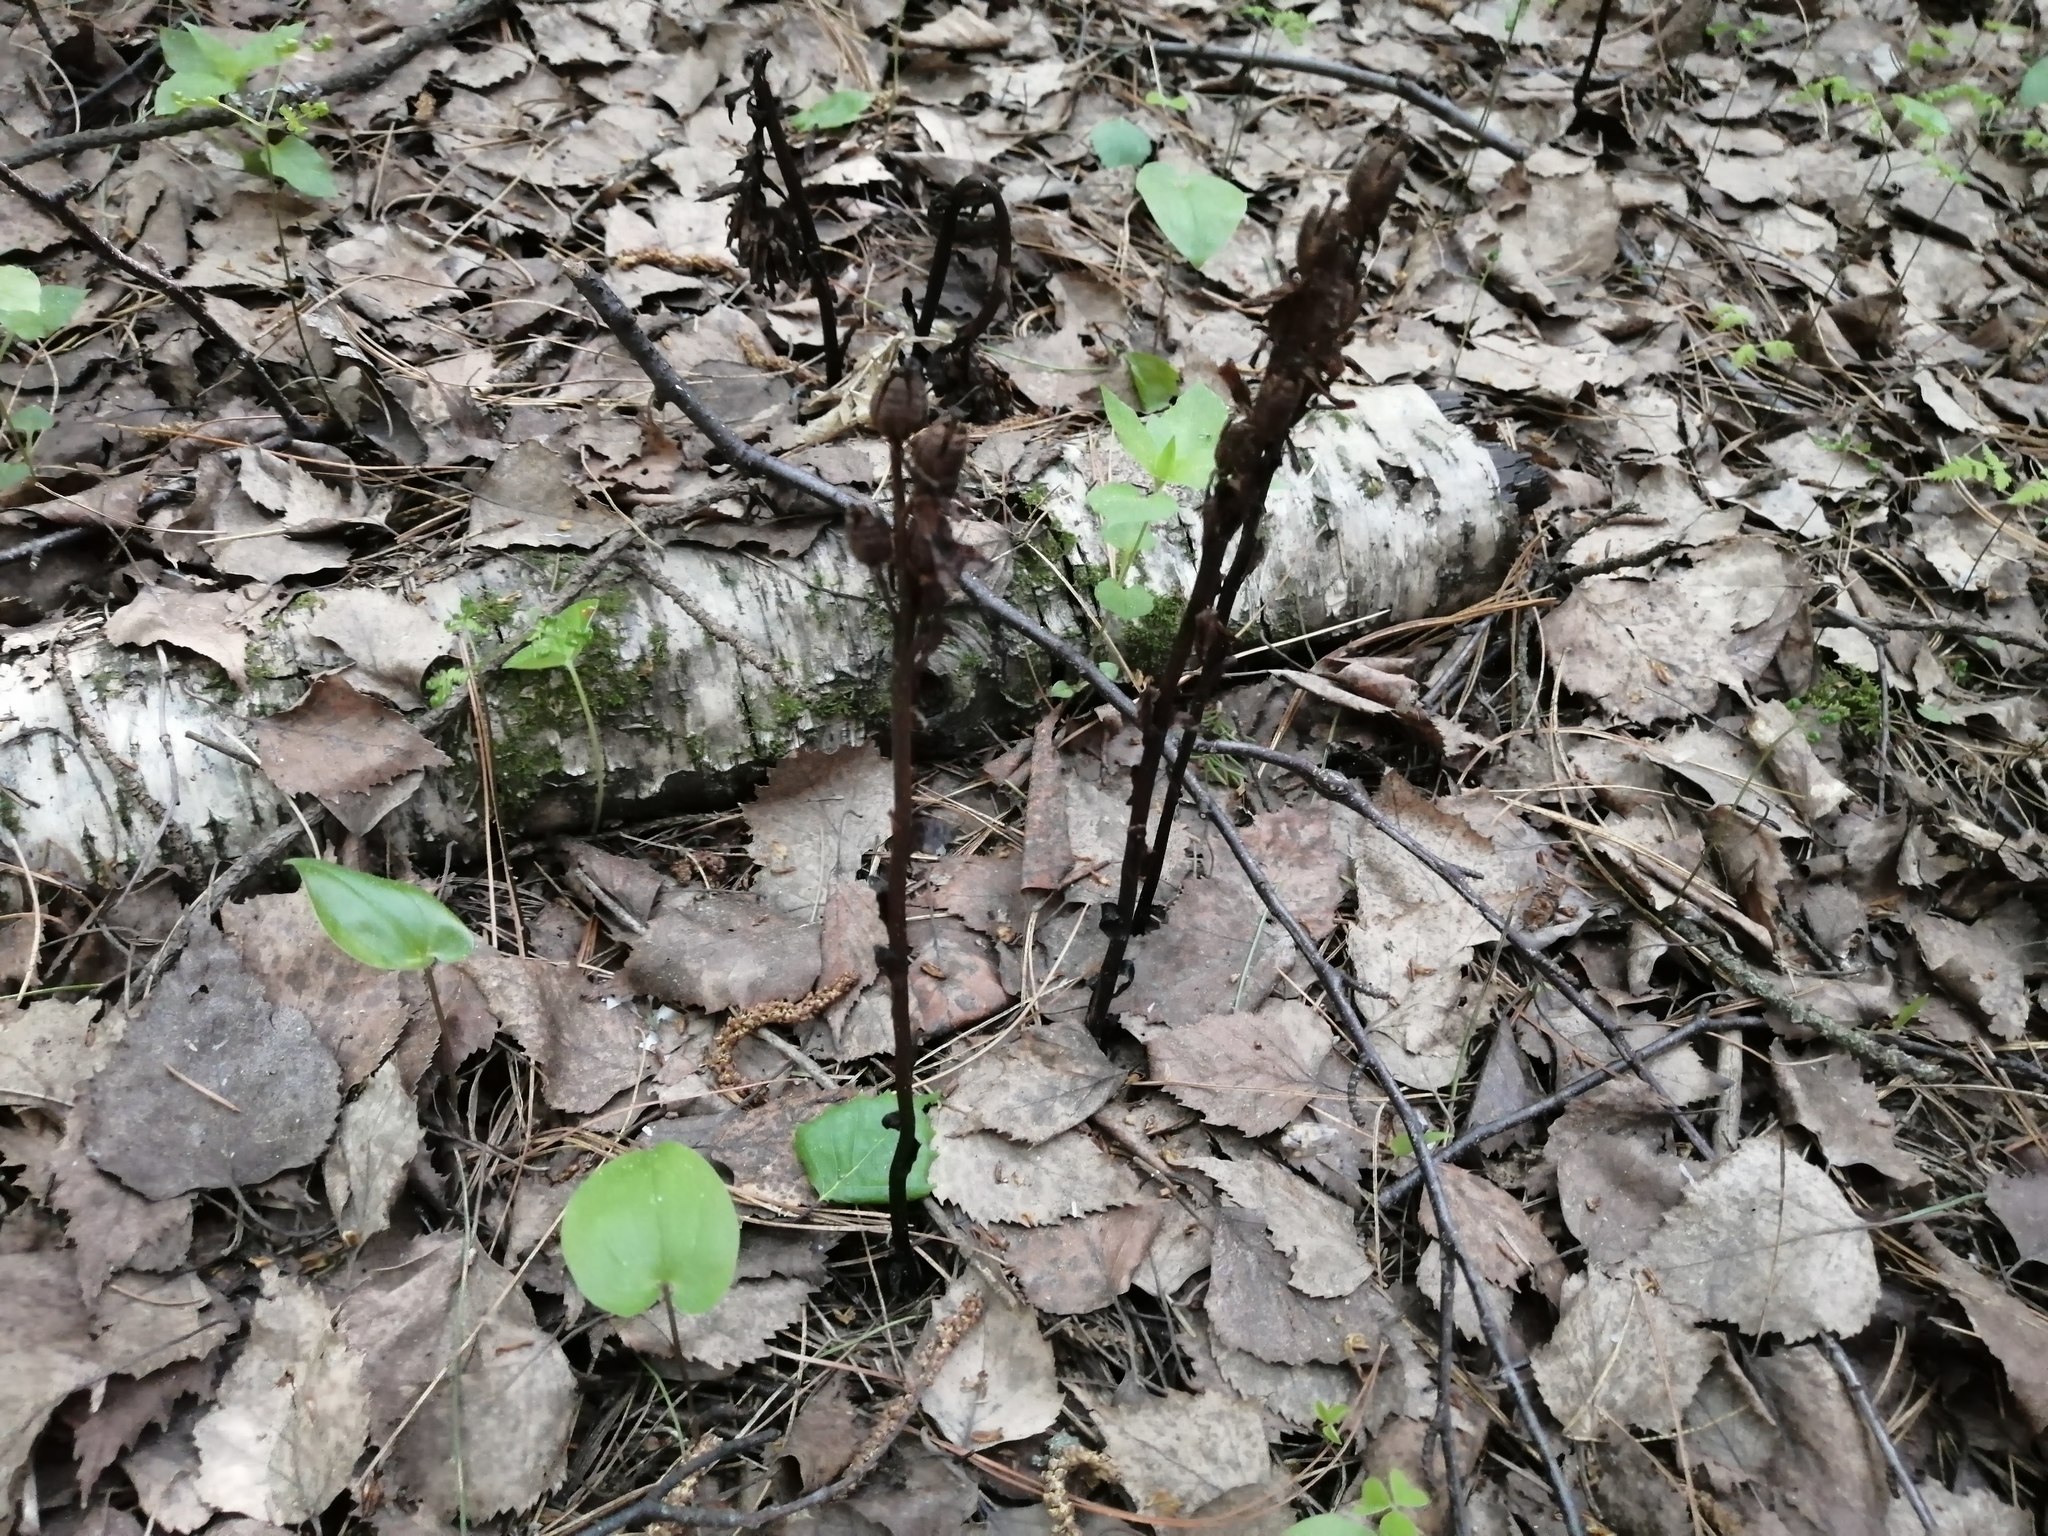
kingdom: Plantae
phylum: Tracheophyta
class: Magnoliopsida
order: Ericales
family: Ericaceae
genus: Hypopitys
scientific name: Hypopitys monotropa
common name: Yellow bird's-nest
